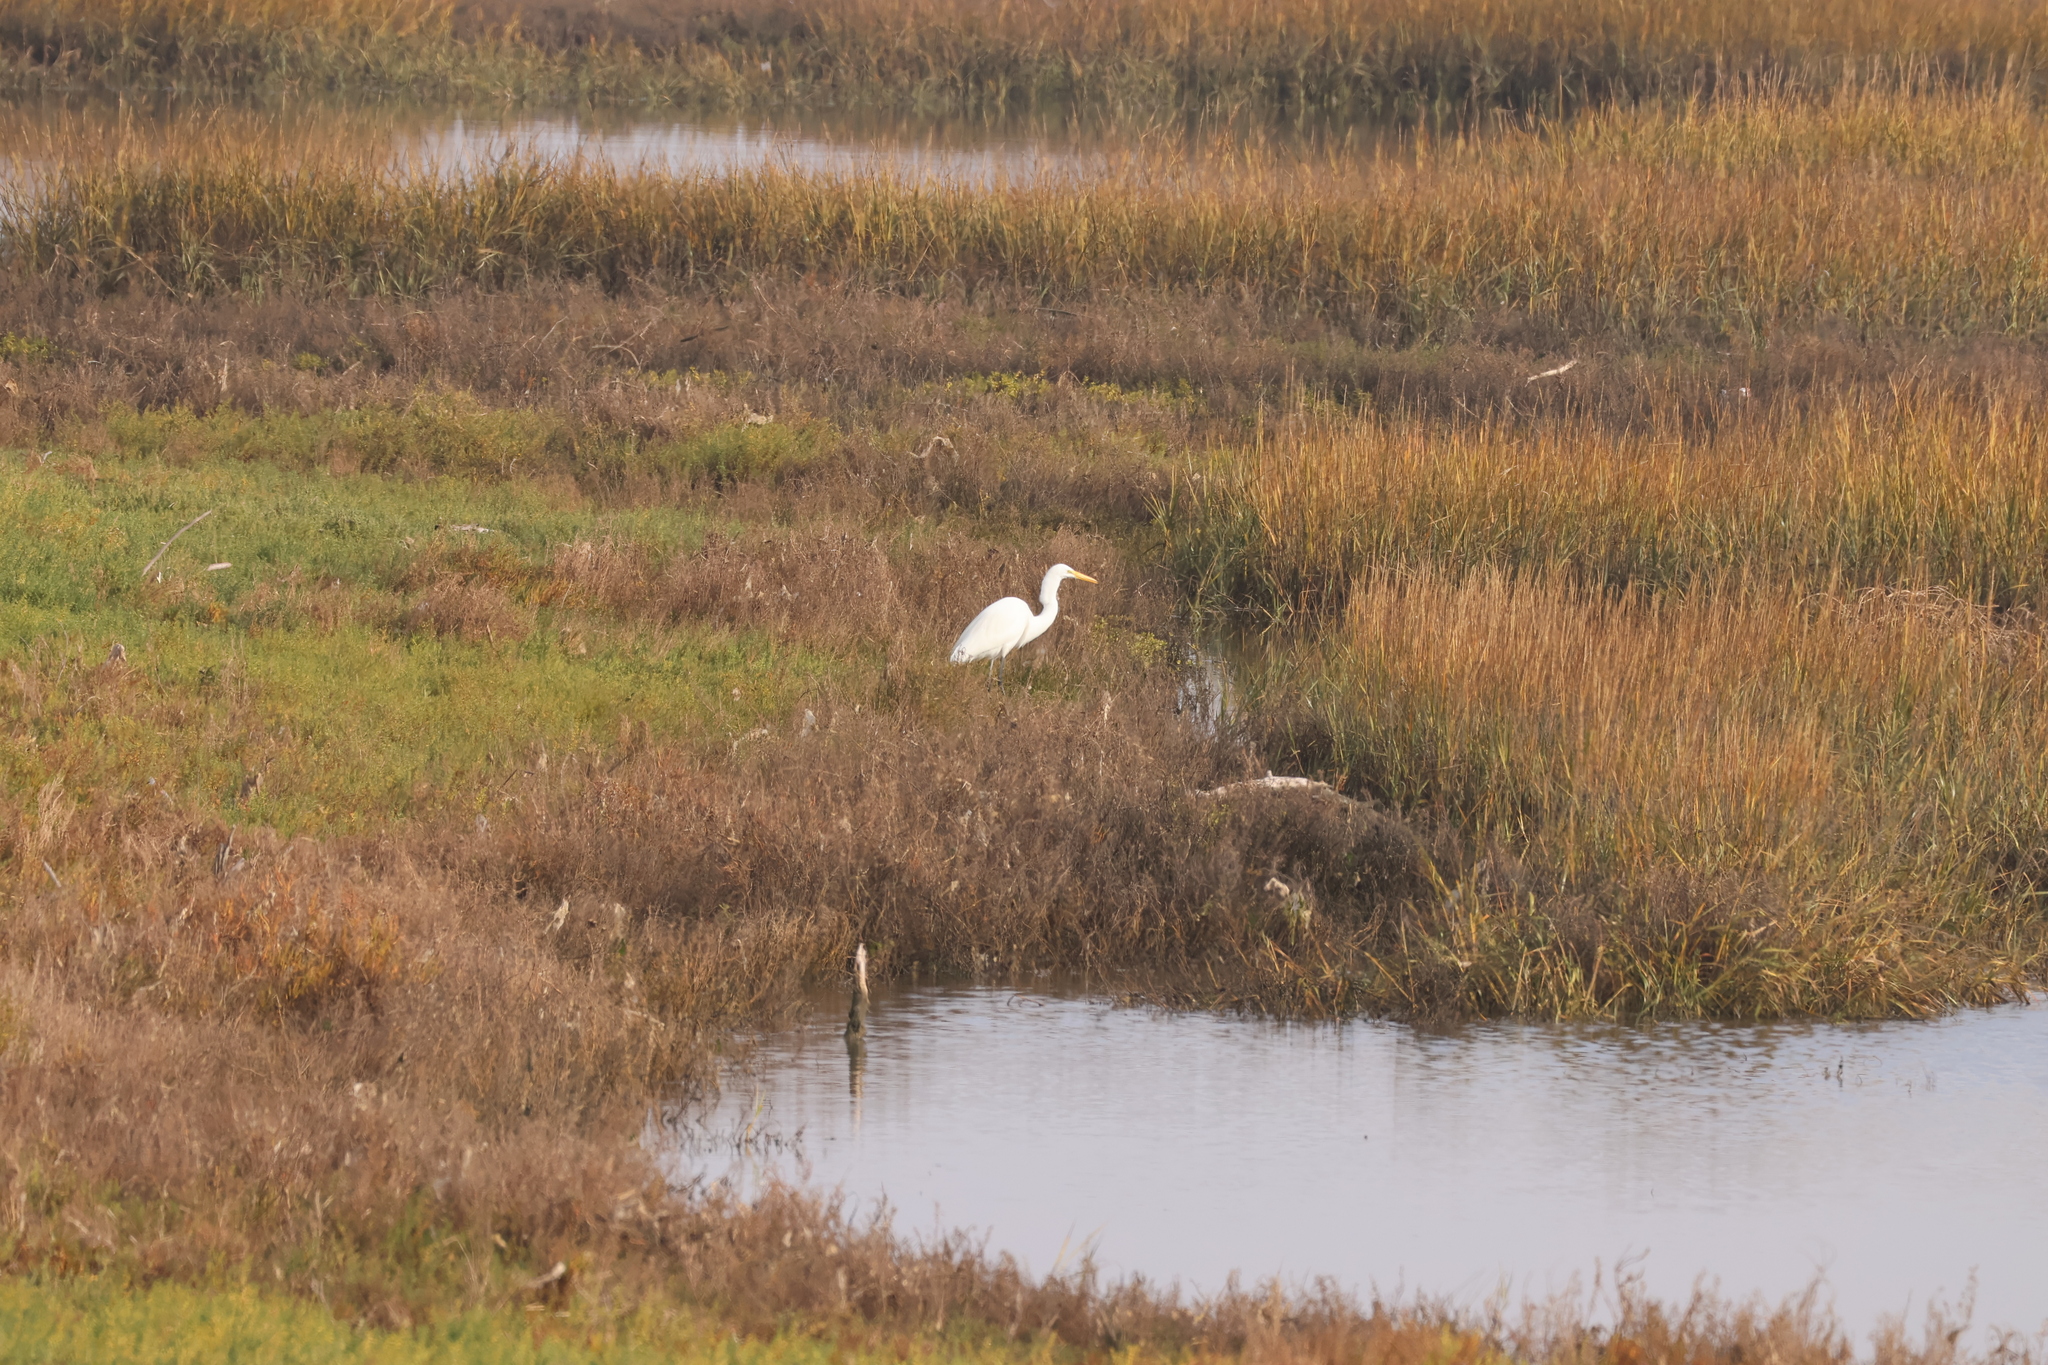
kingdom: Animalia
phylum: Chordata
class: Aves
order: Pelecaniformes
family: Ardeidae
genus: Ardea
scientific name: Ardea alba
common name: Great egret
